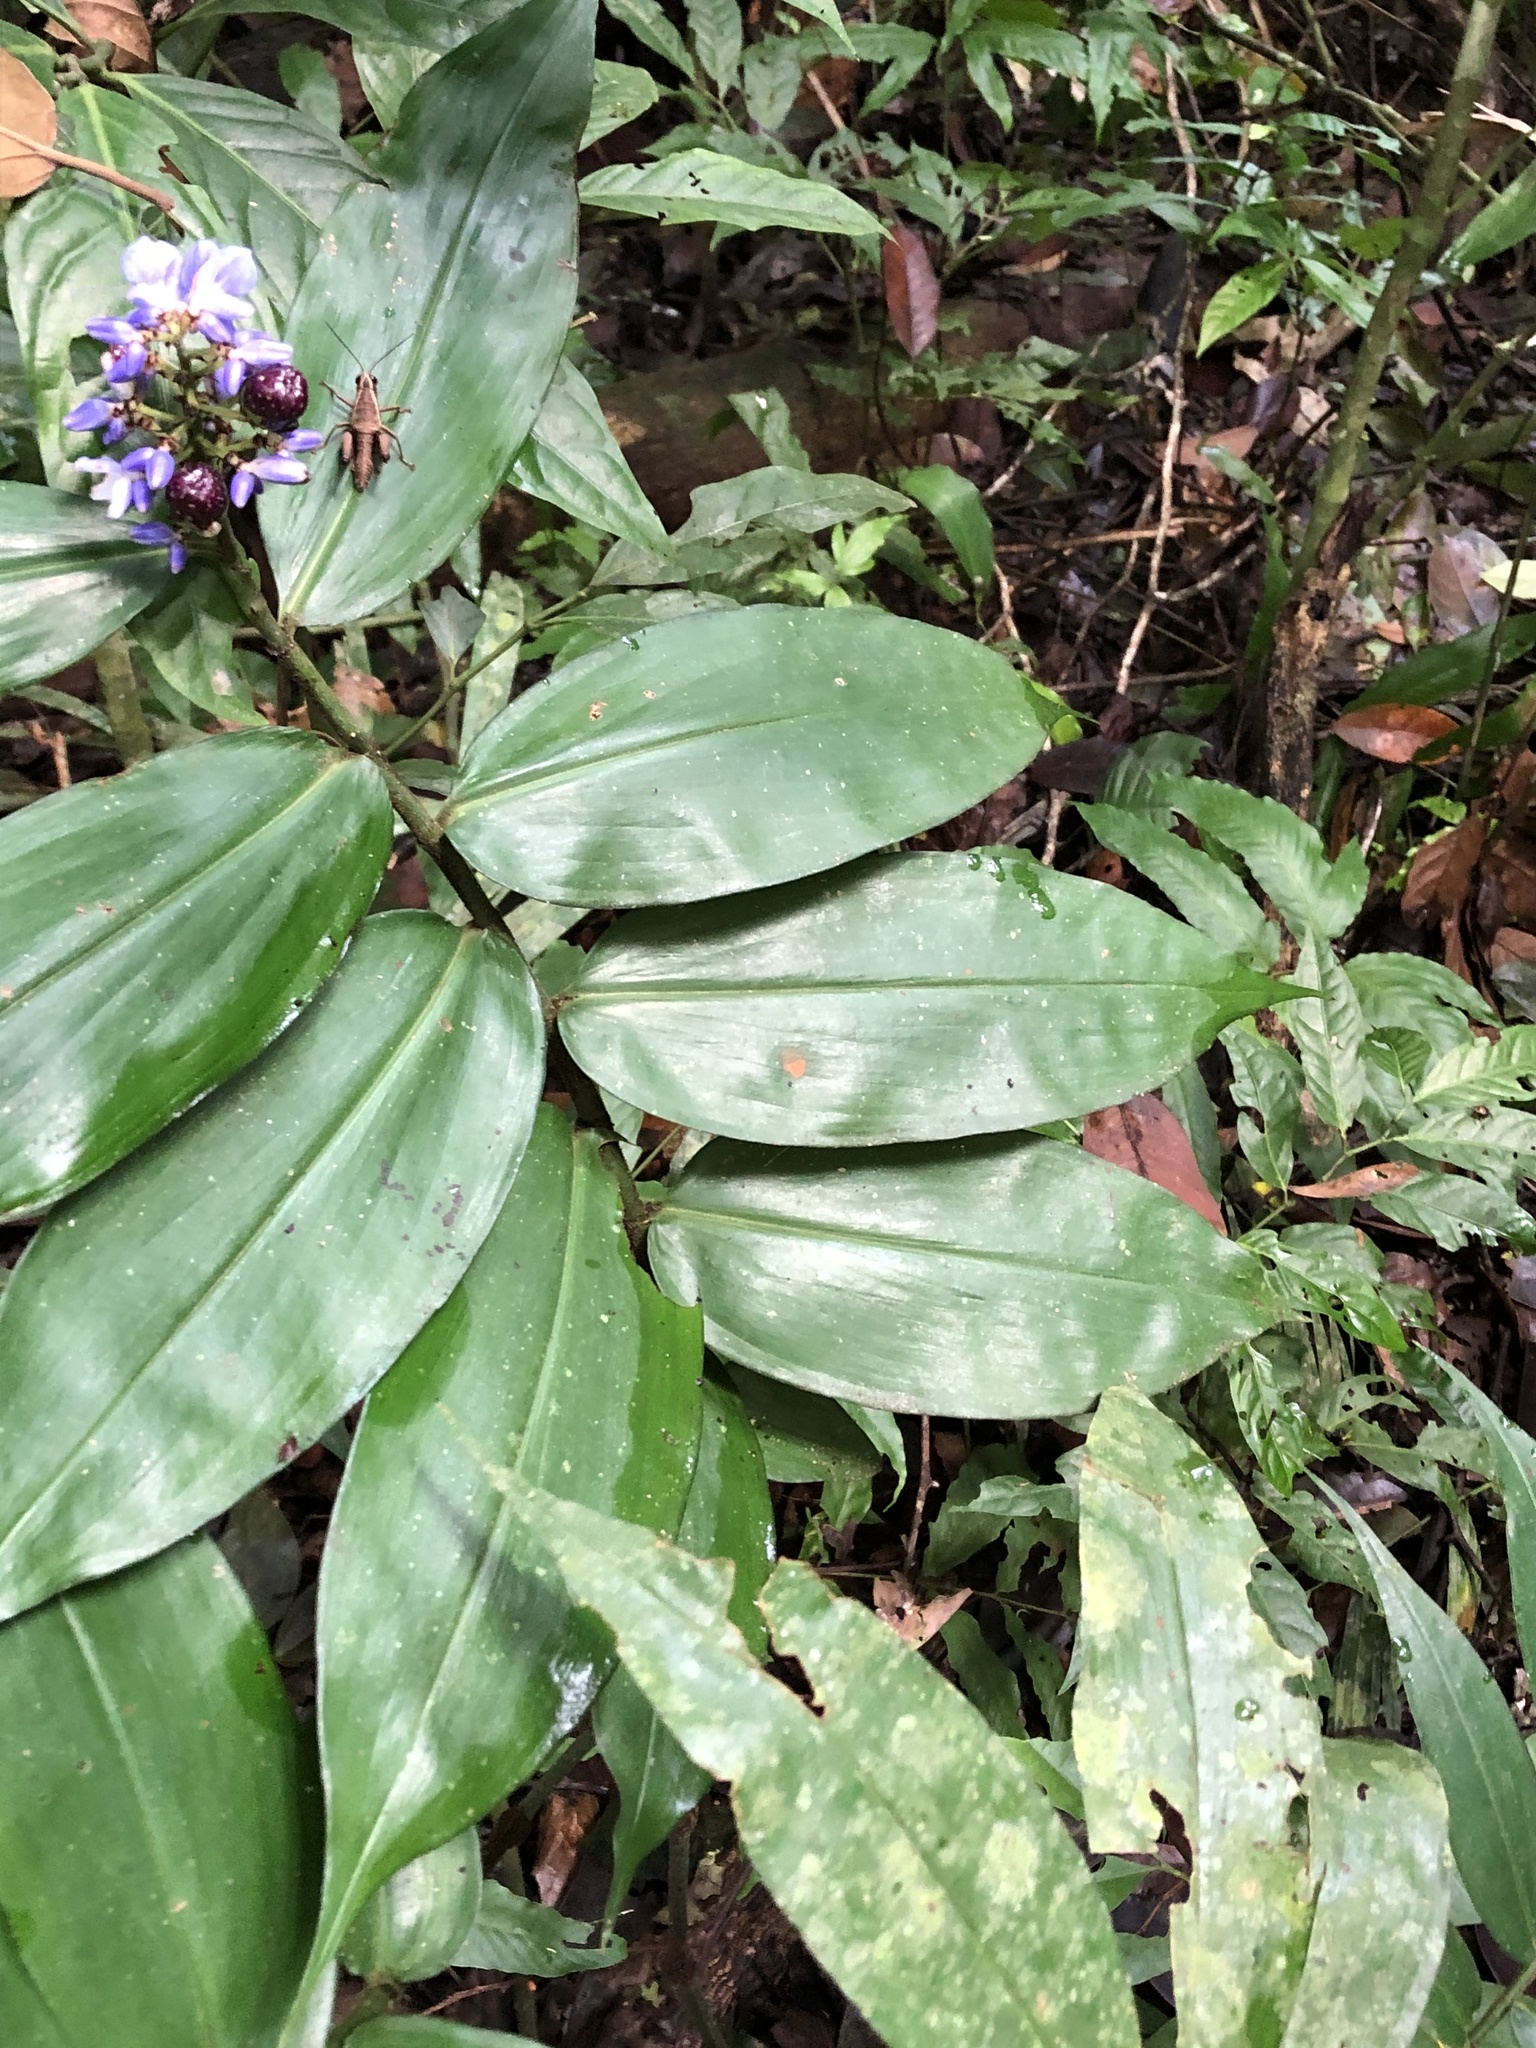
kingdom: Plantae
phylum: Tracheophyta
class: Liliopsida
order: Commelinales
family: Commelinaceae
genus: Dichorisandra
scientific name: Dichorisandra hexandra
